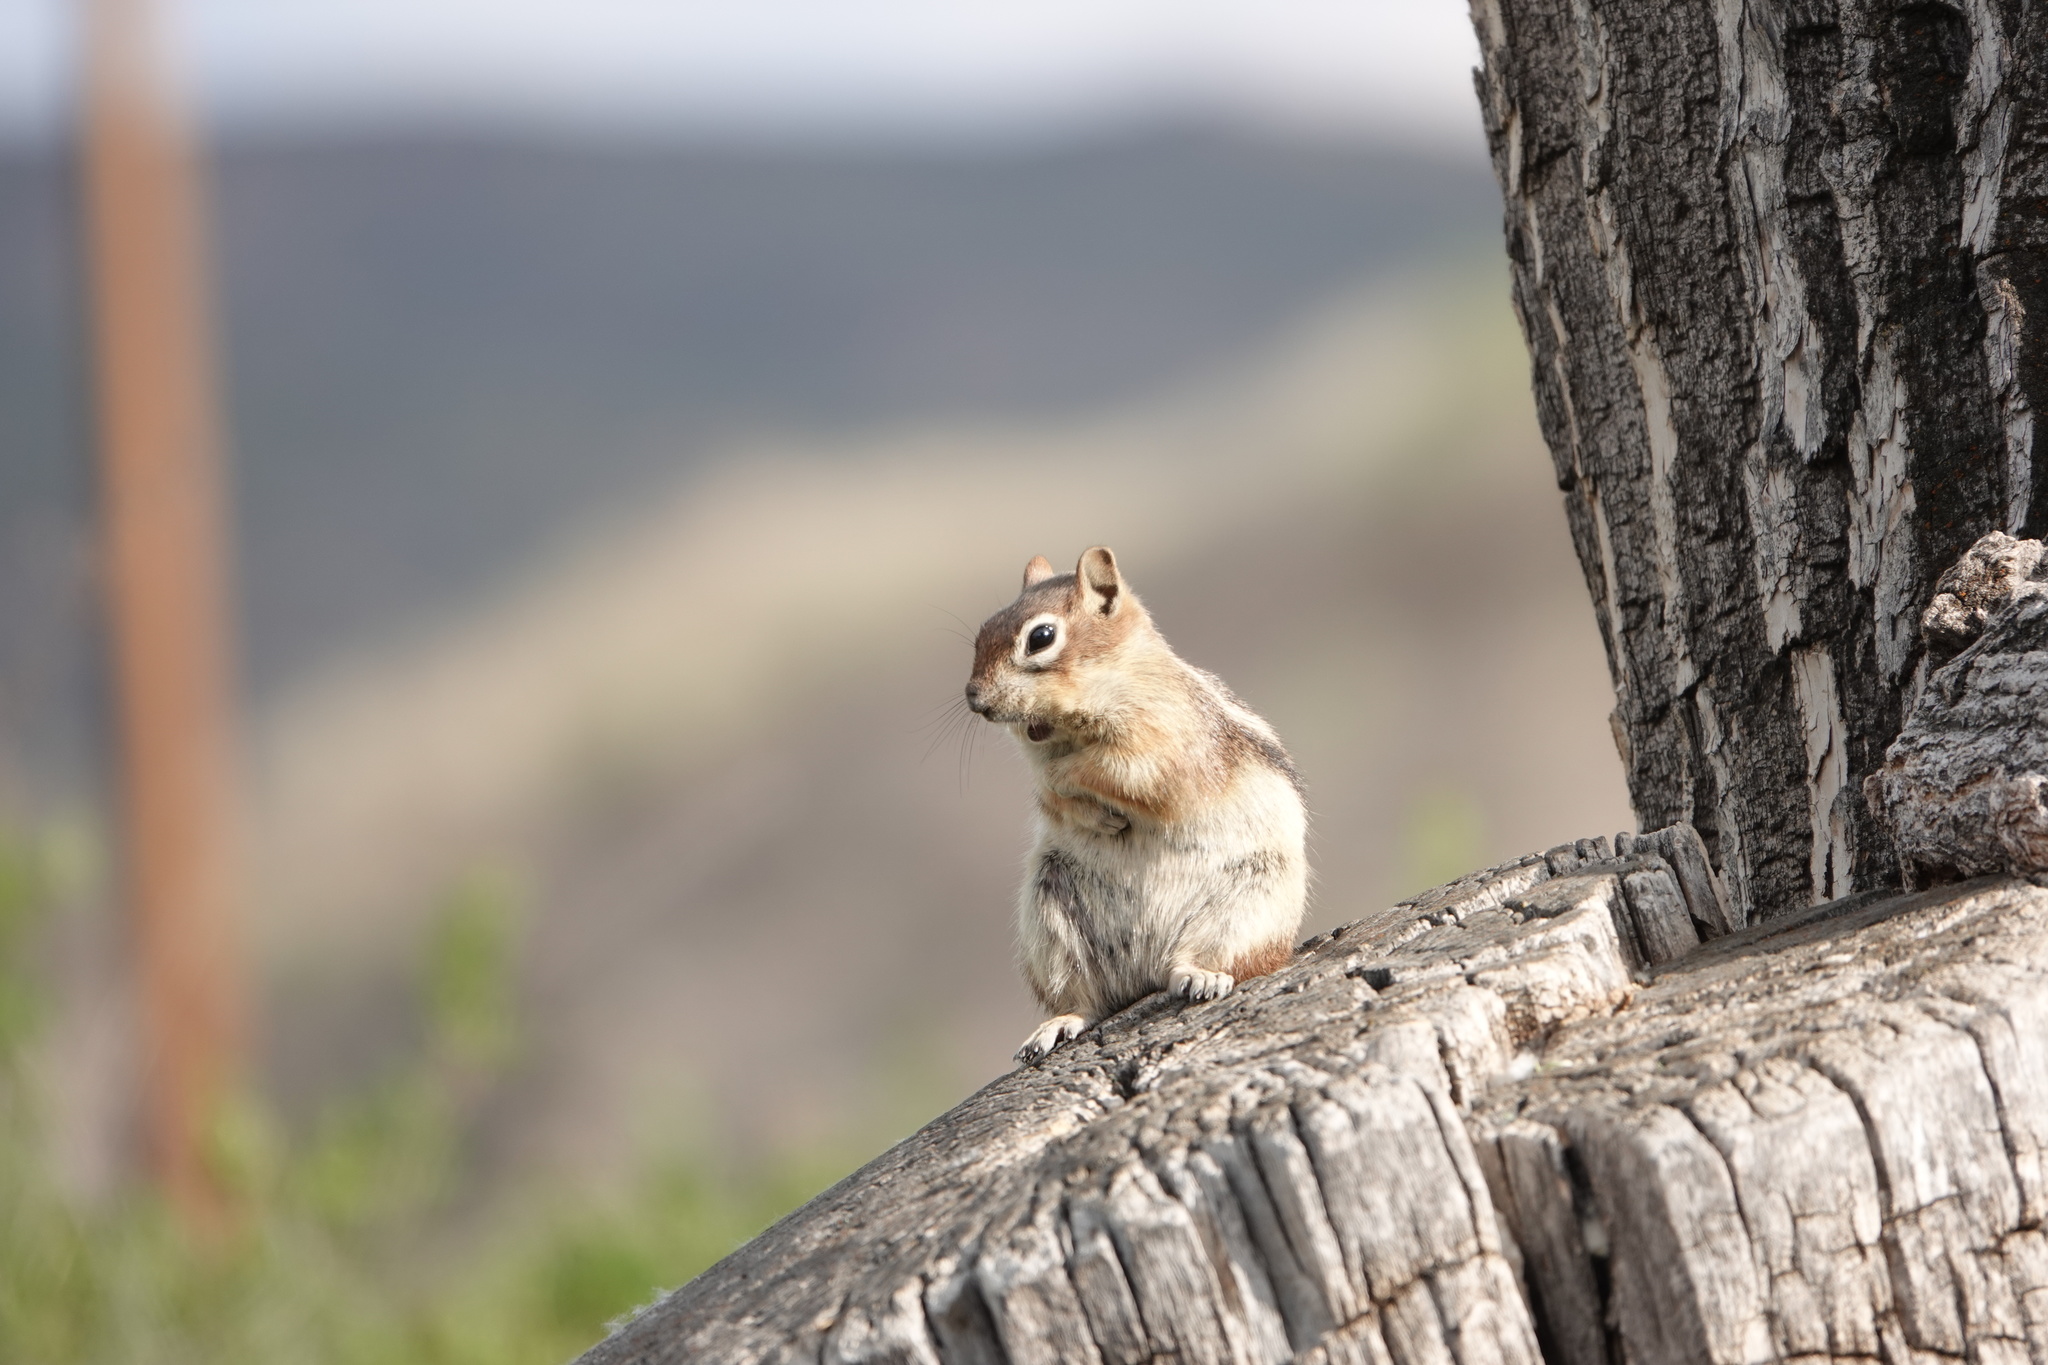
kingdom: Animalia
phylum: Chordata
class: Mammalia
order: Rodentia
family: Sciuridae
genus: Callospermophilus
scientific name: Callospermophilus lateralis
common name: Golden-mantled ground squirrel
